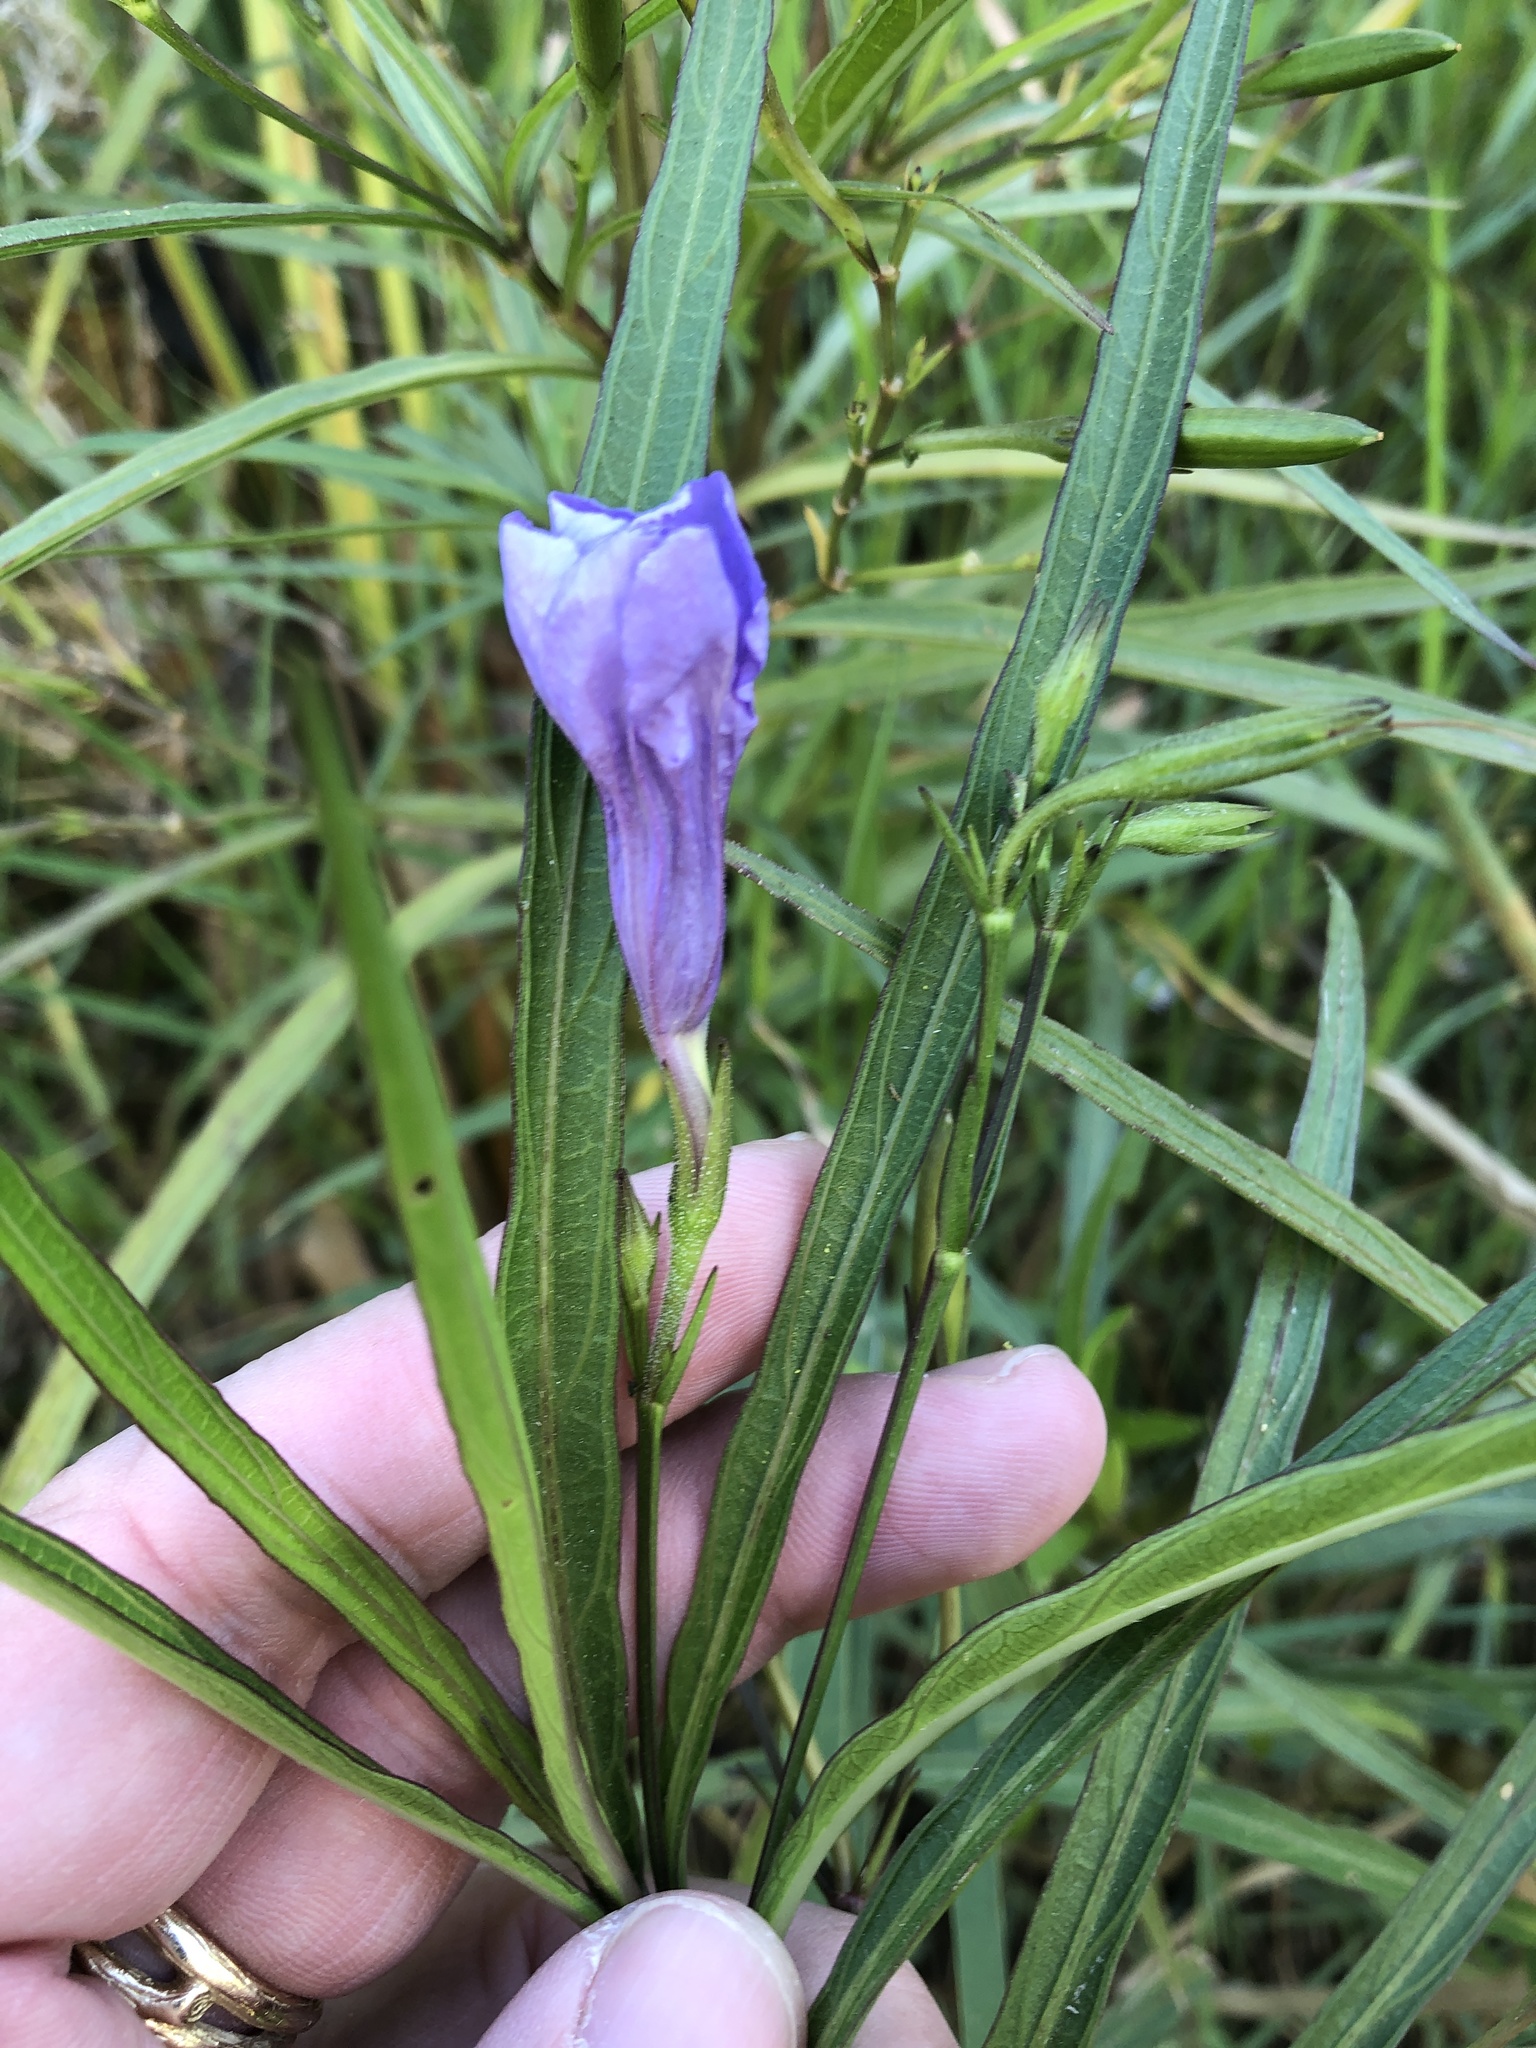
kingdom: Plantae
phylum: Tracheophyta
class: Magnoliopsida
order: Lamiales
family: Acanthaceae
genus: Ruellia
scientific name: Ruellia simplex
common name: Softseed wild petunia
